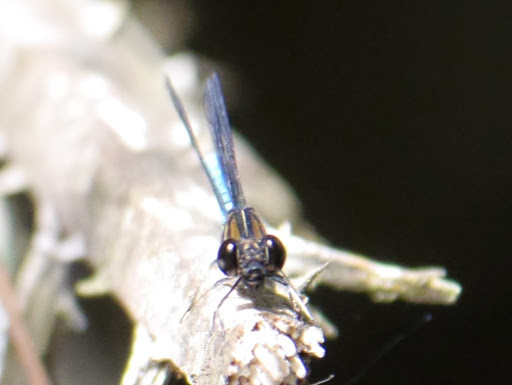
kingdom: Animalia
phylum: Arthropoda
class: Insecta
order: Odonata
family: Chlorocyphidae
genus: Chlorocypha
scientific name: Chlorocypha aphrodite
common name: Blue jewel
